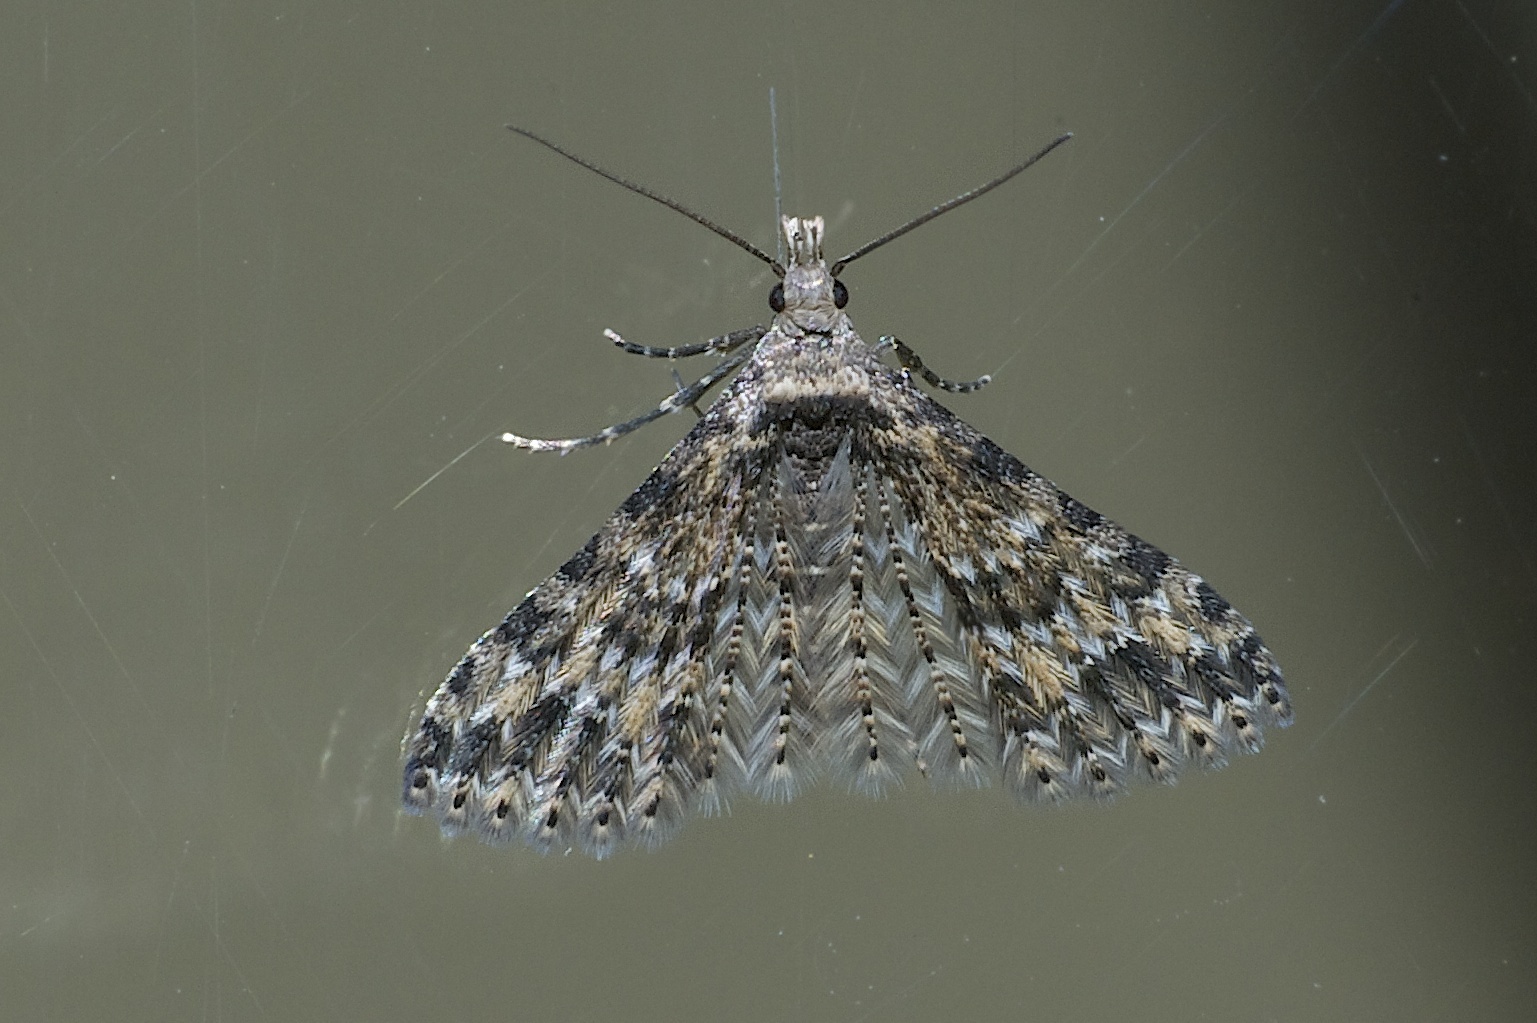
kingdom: Animalia
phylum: Arthropoda
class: Insecta
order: Lepidoptera
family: Alucitidae
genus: Alucita
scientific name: Alucita montana
